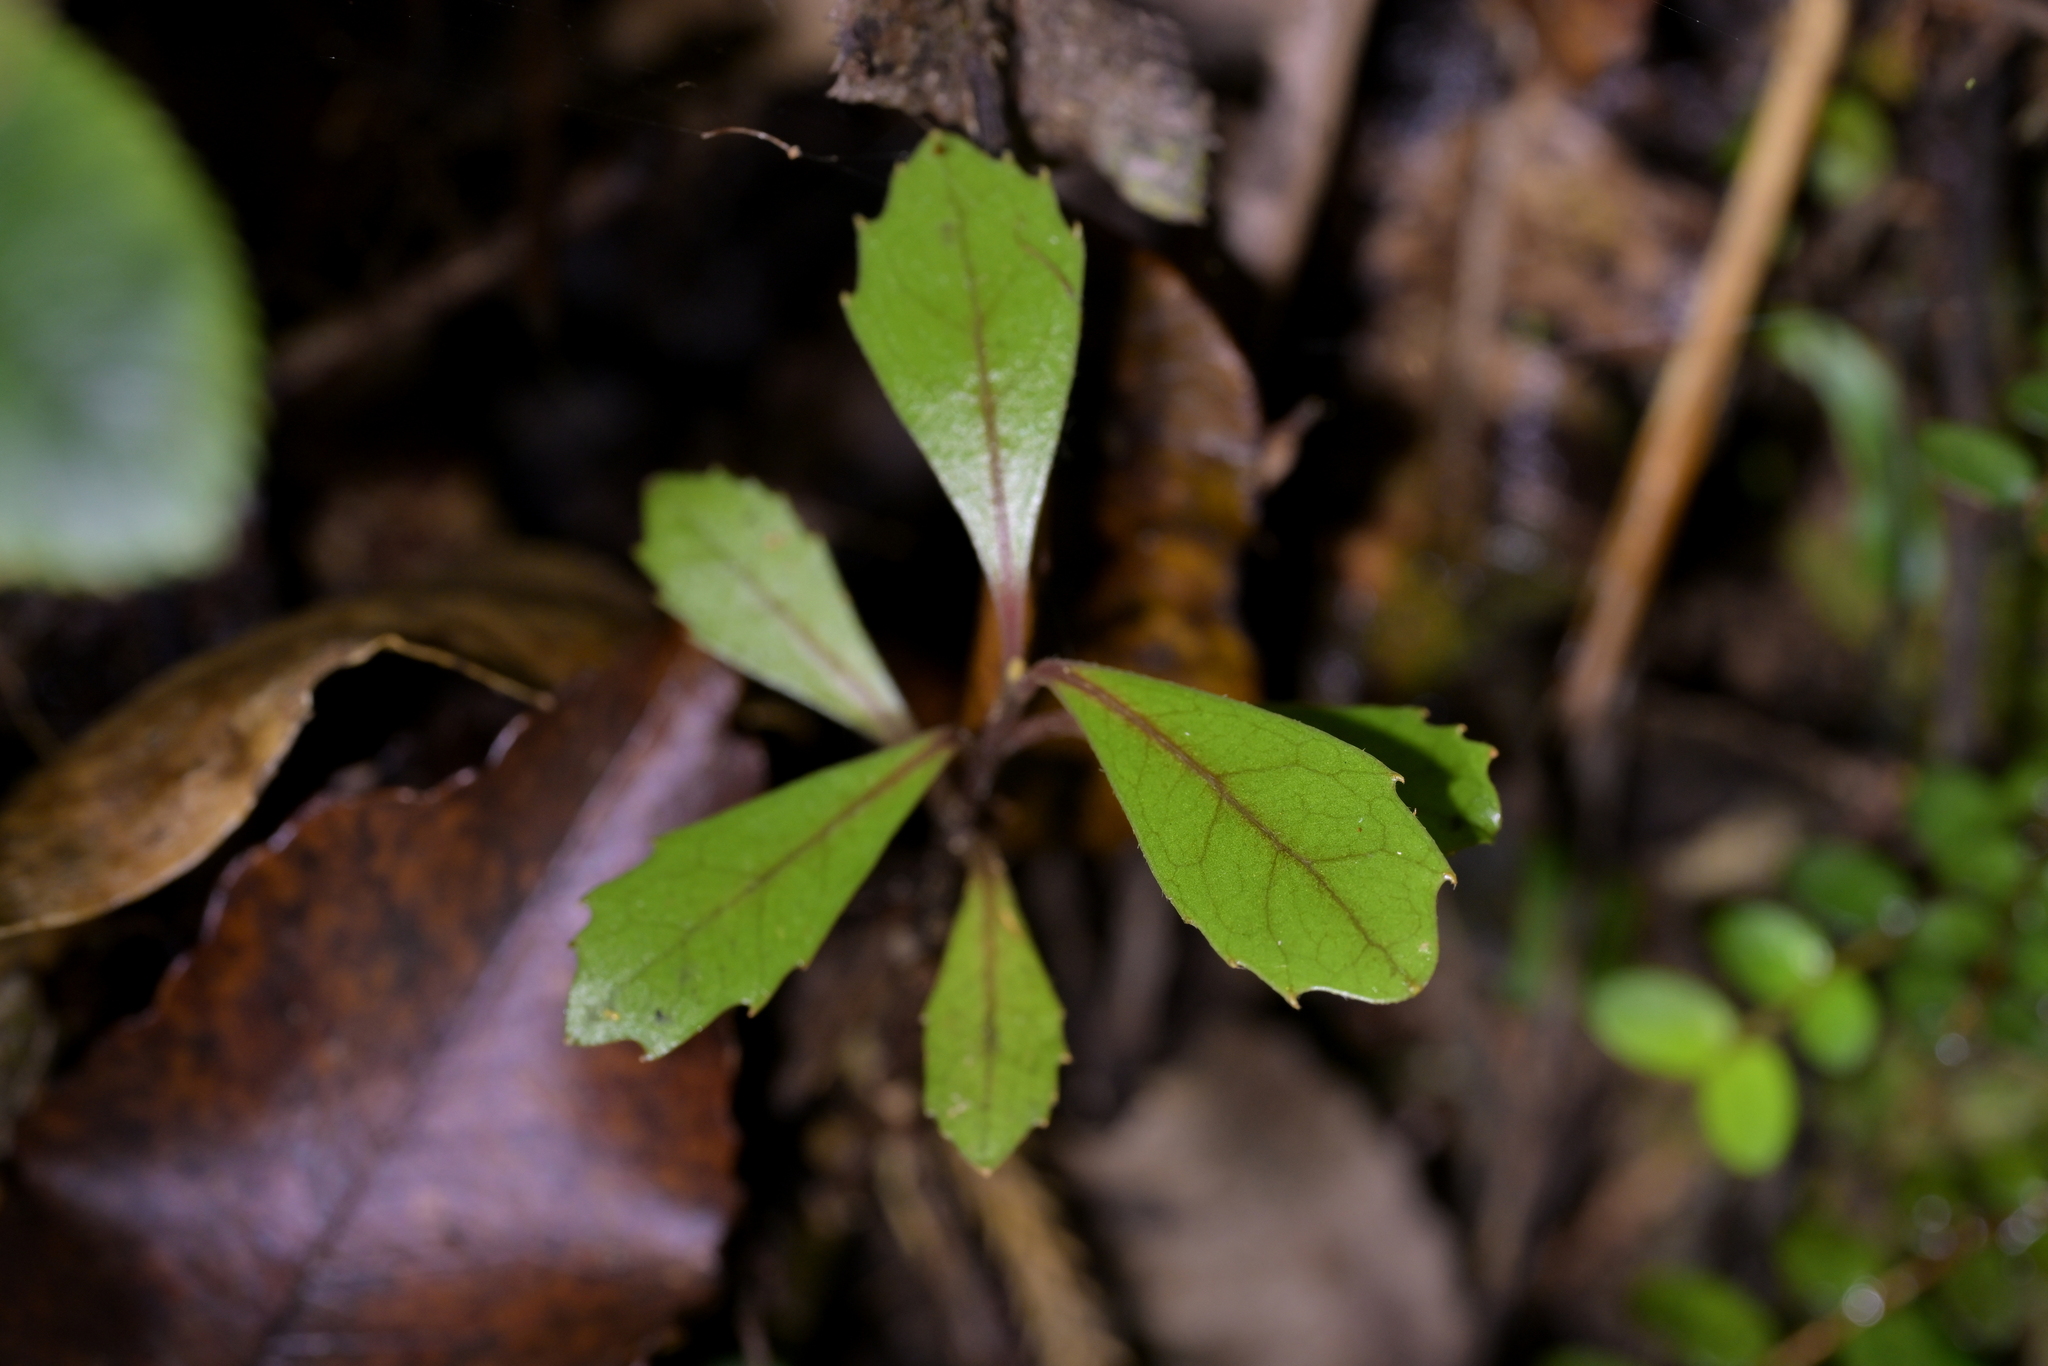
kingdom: Plantae
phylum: Tracheophyta
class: Magnoliopsida
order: Laurales
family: Monimiaceae
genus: Hedycarya
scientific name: Hedycarya arborea
